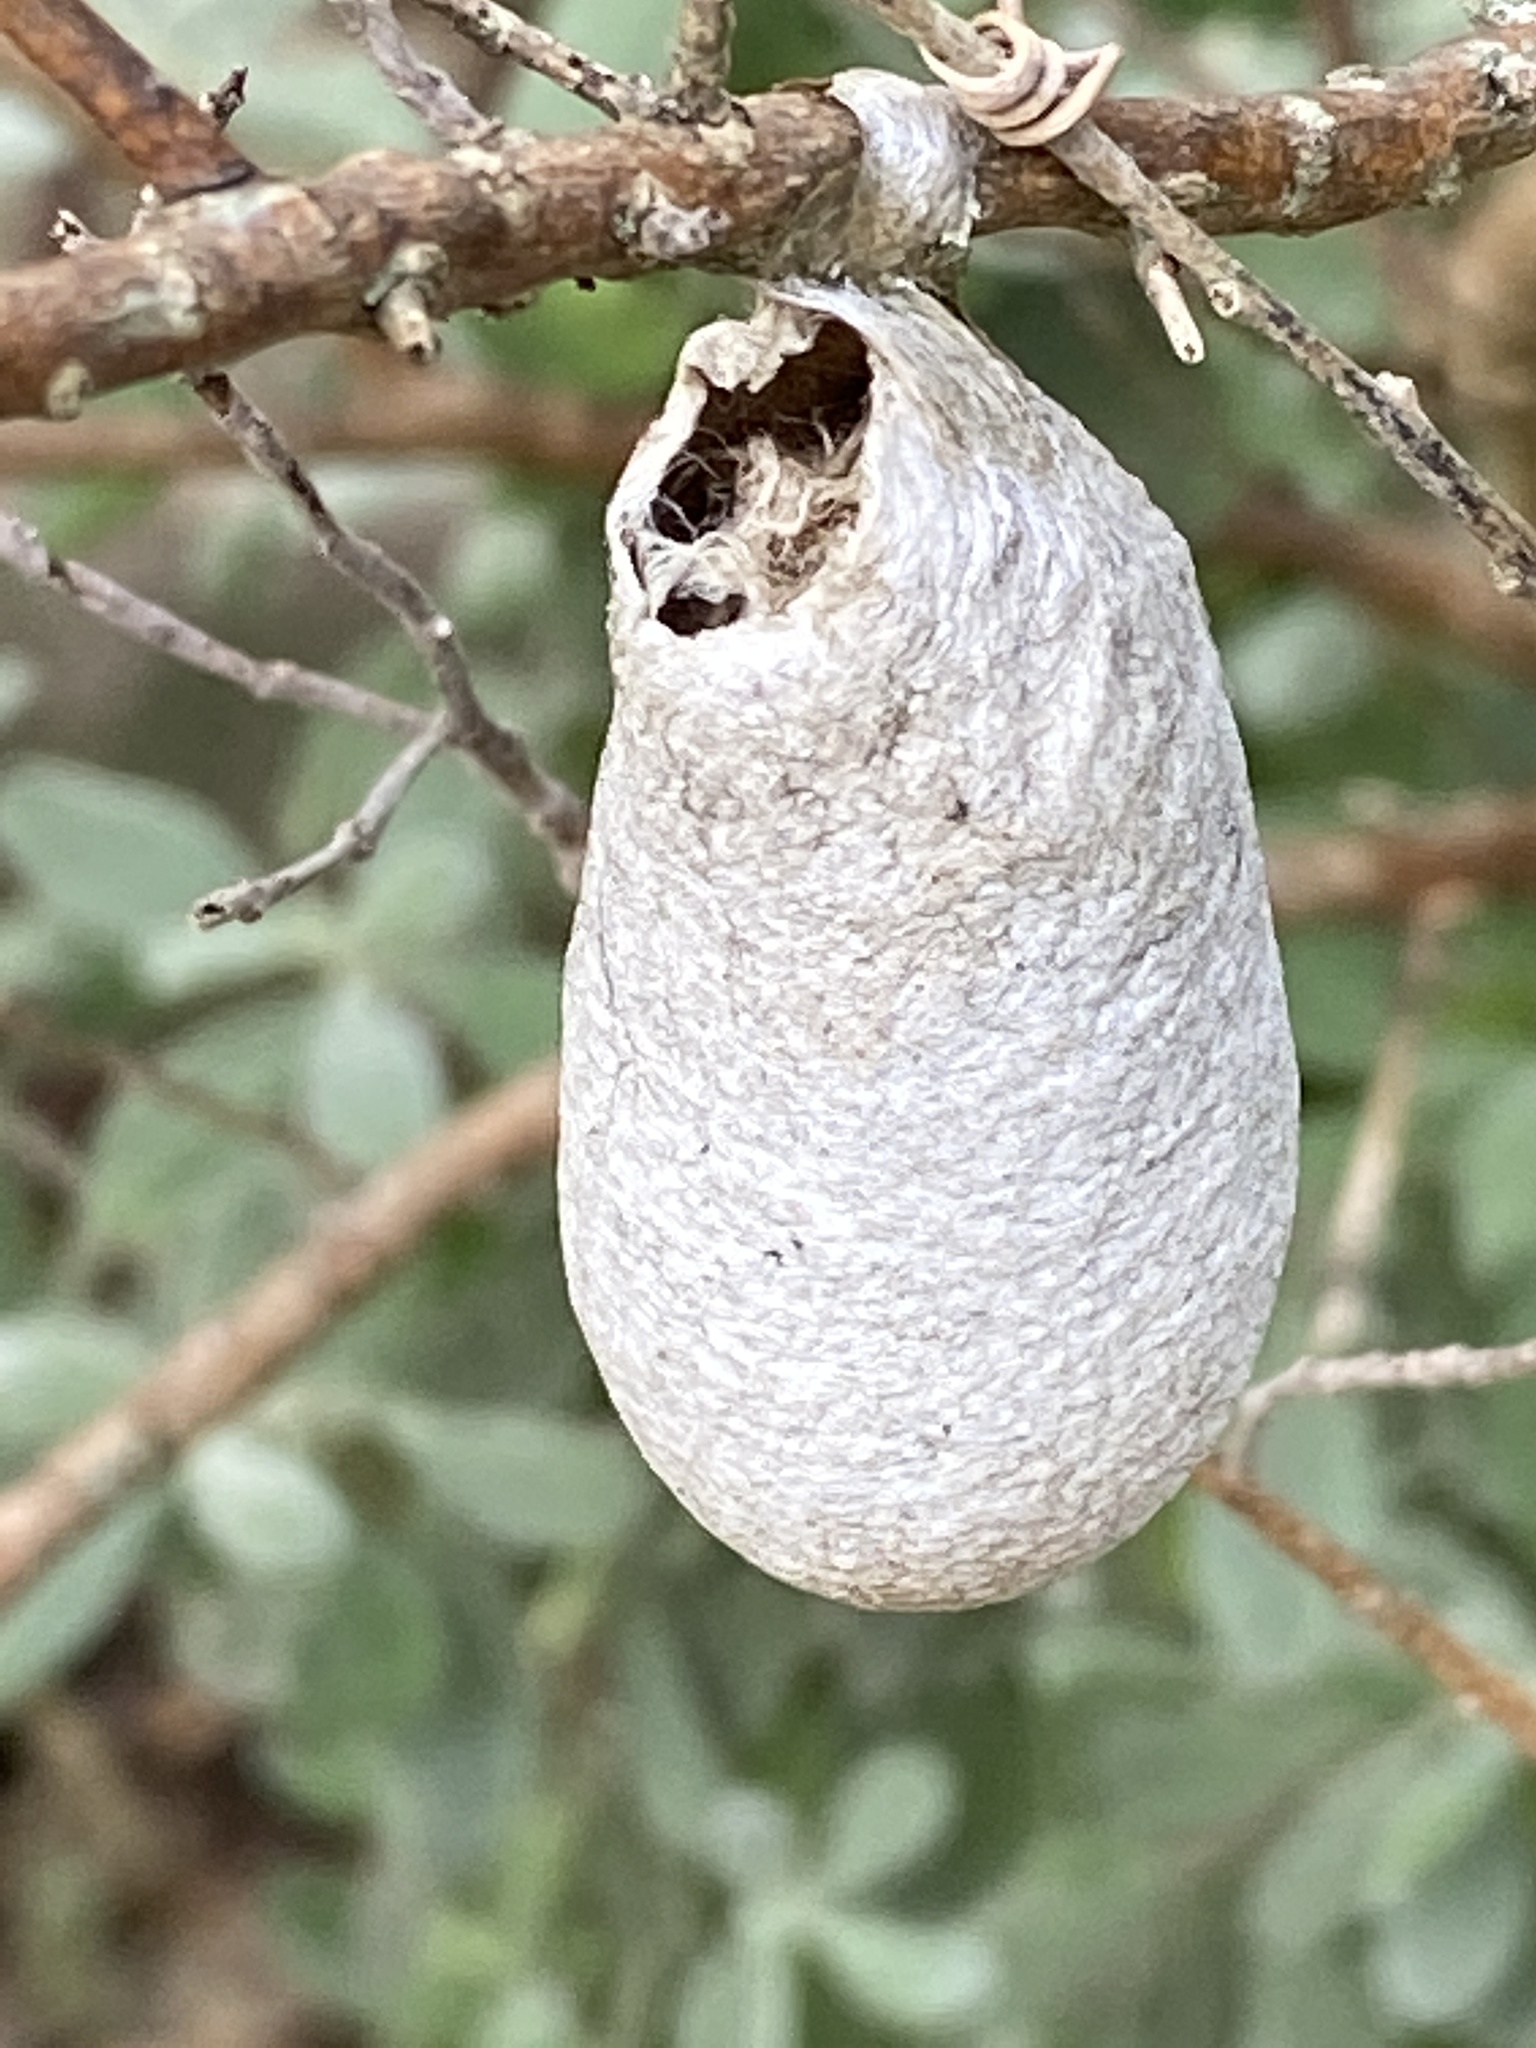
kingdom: Animalia
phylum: Arthropoda
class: Insecta
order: Lepidoptera
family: Saturniidae
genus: Eupackardia
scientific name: Eupackardia calleta
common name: Calleta silkmoth
